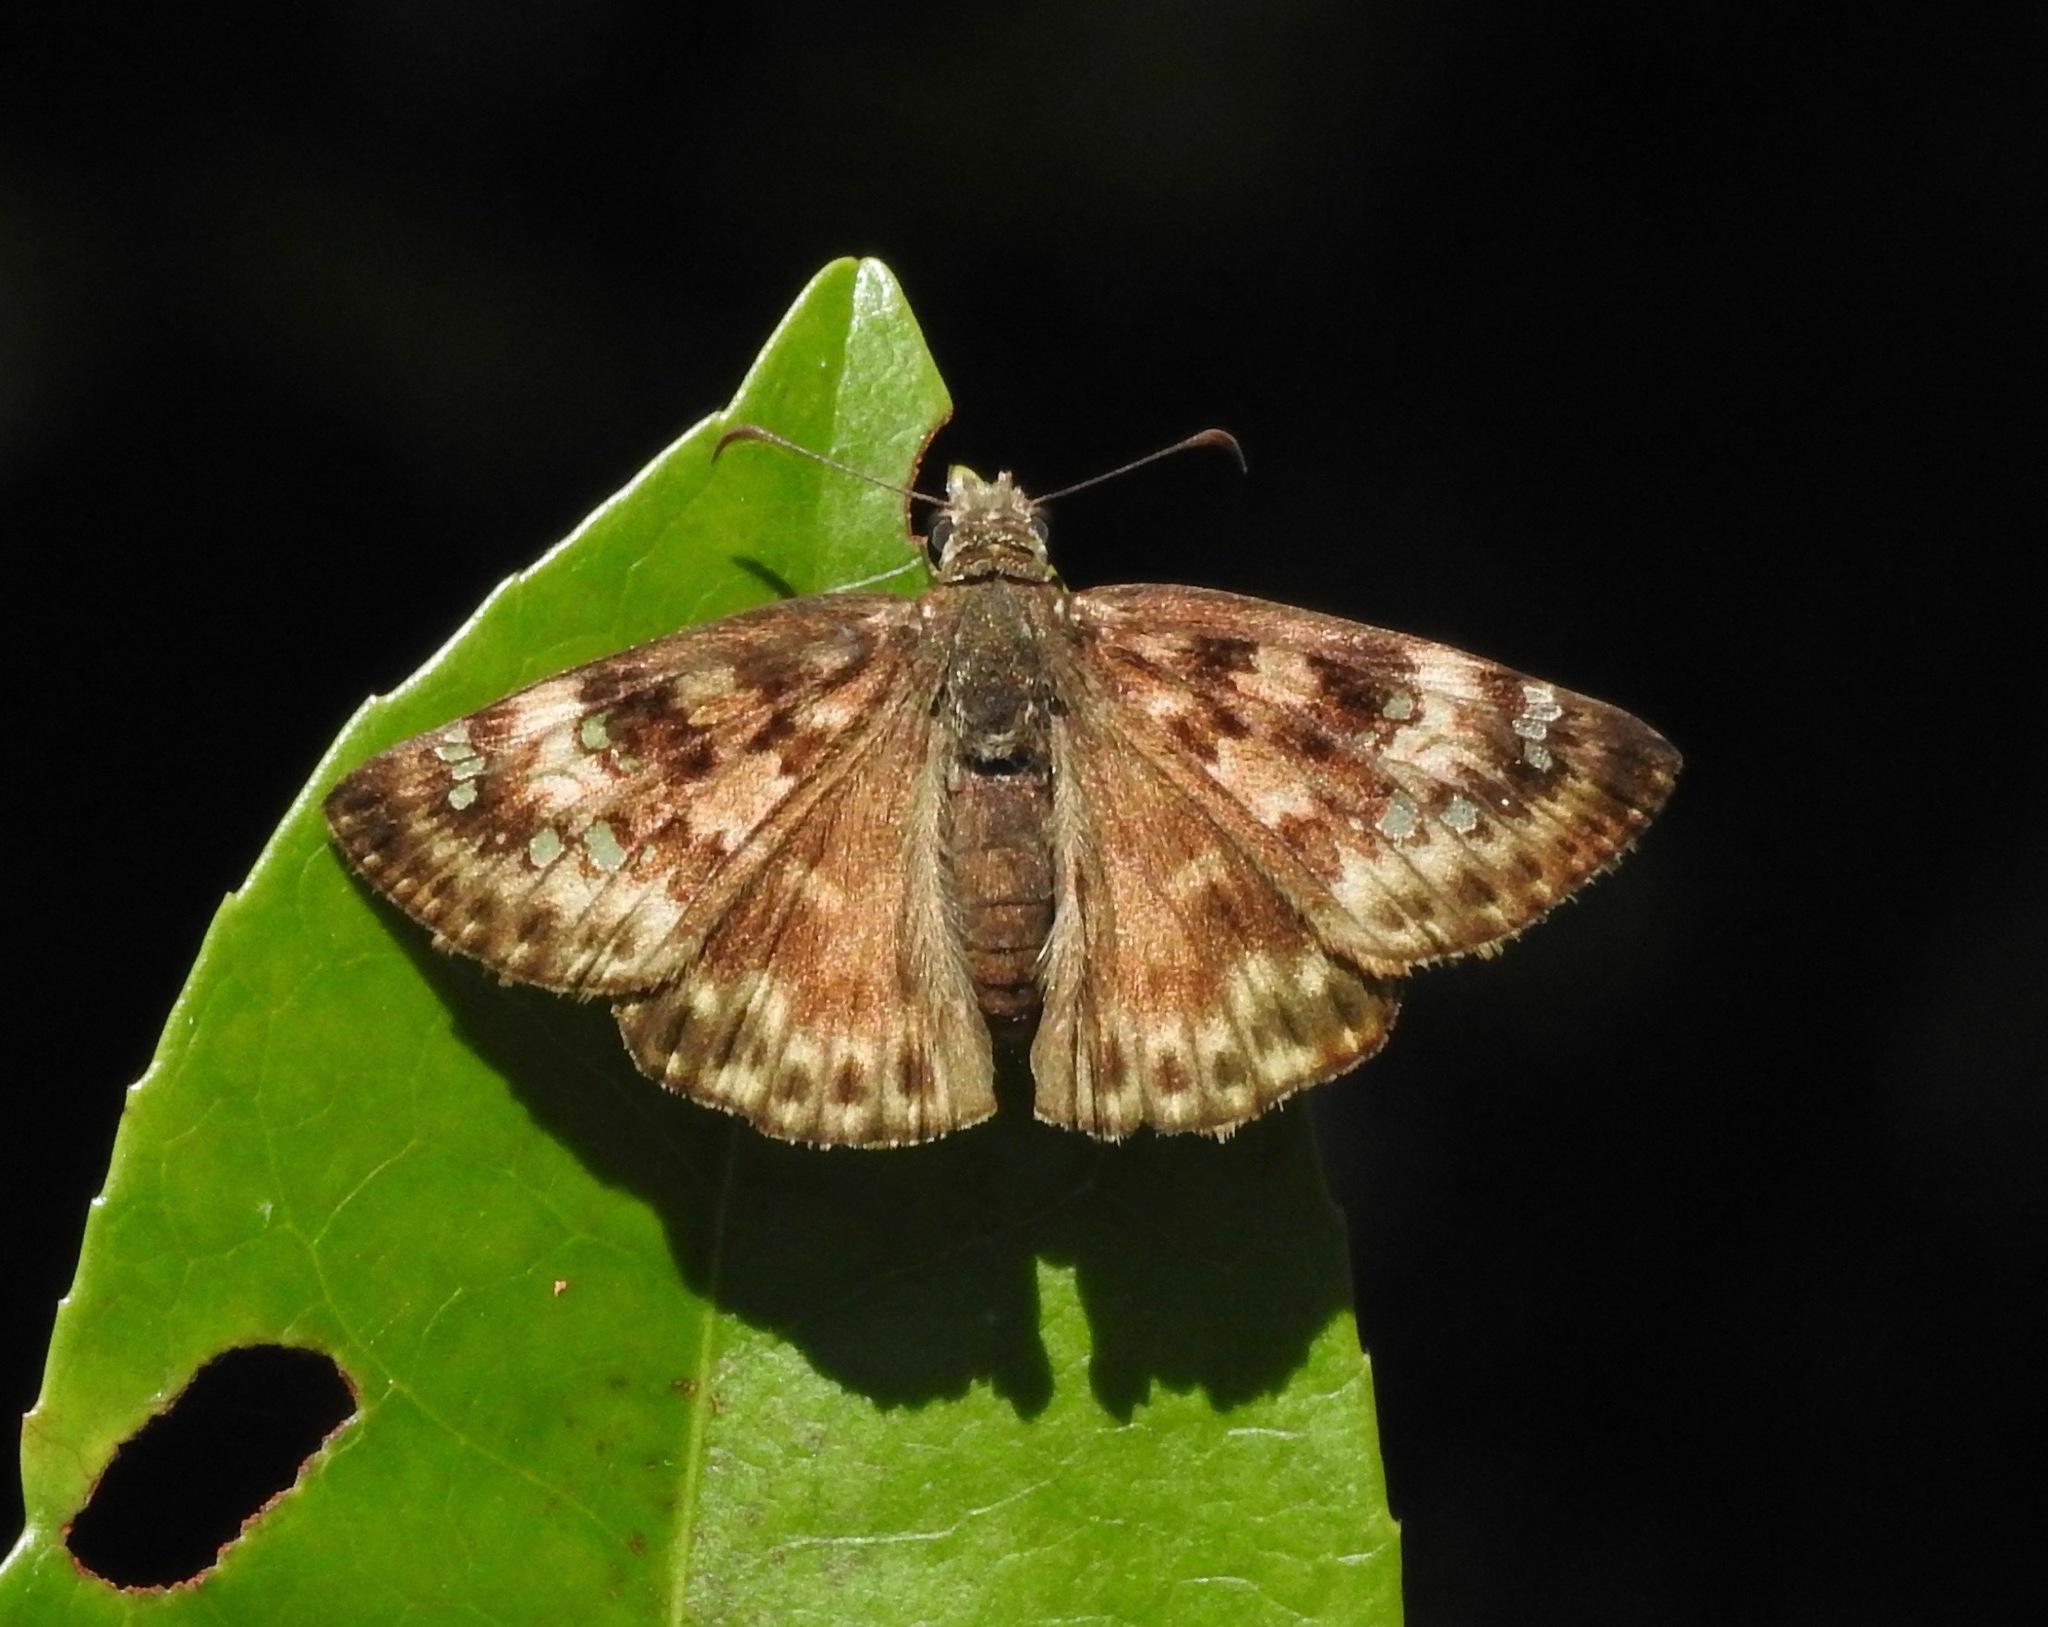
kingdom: Animalia
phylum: Arthropoda
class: Insecta
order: Lepidoptera
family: Hesperiidae
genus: Erynnis
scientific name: Erynnis horatius
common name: Horace's duskywing
